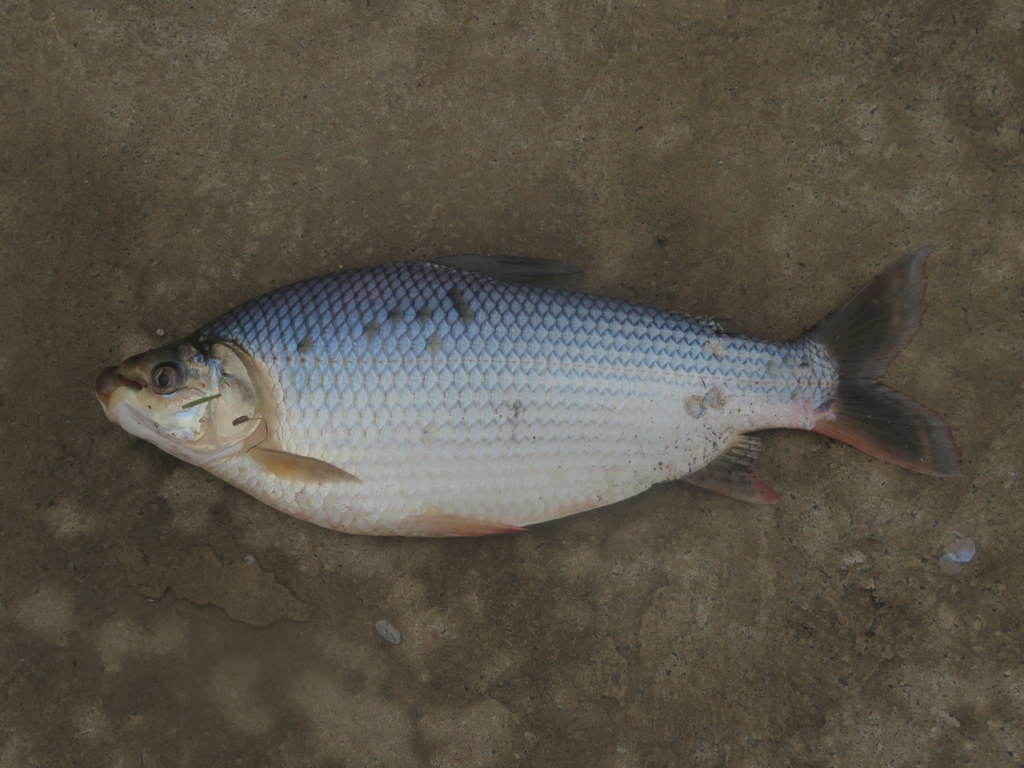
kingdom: Animalia
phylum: Chordata
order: Characiformes
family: Prochilodontidae
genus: Prochilodus
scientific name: Prochilodus lineatus
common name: Curimbata
